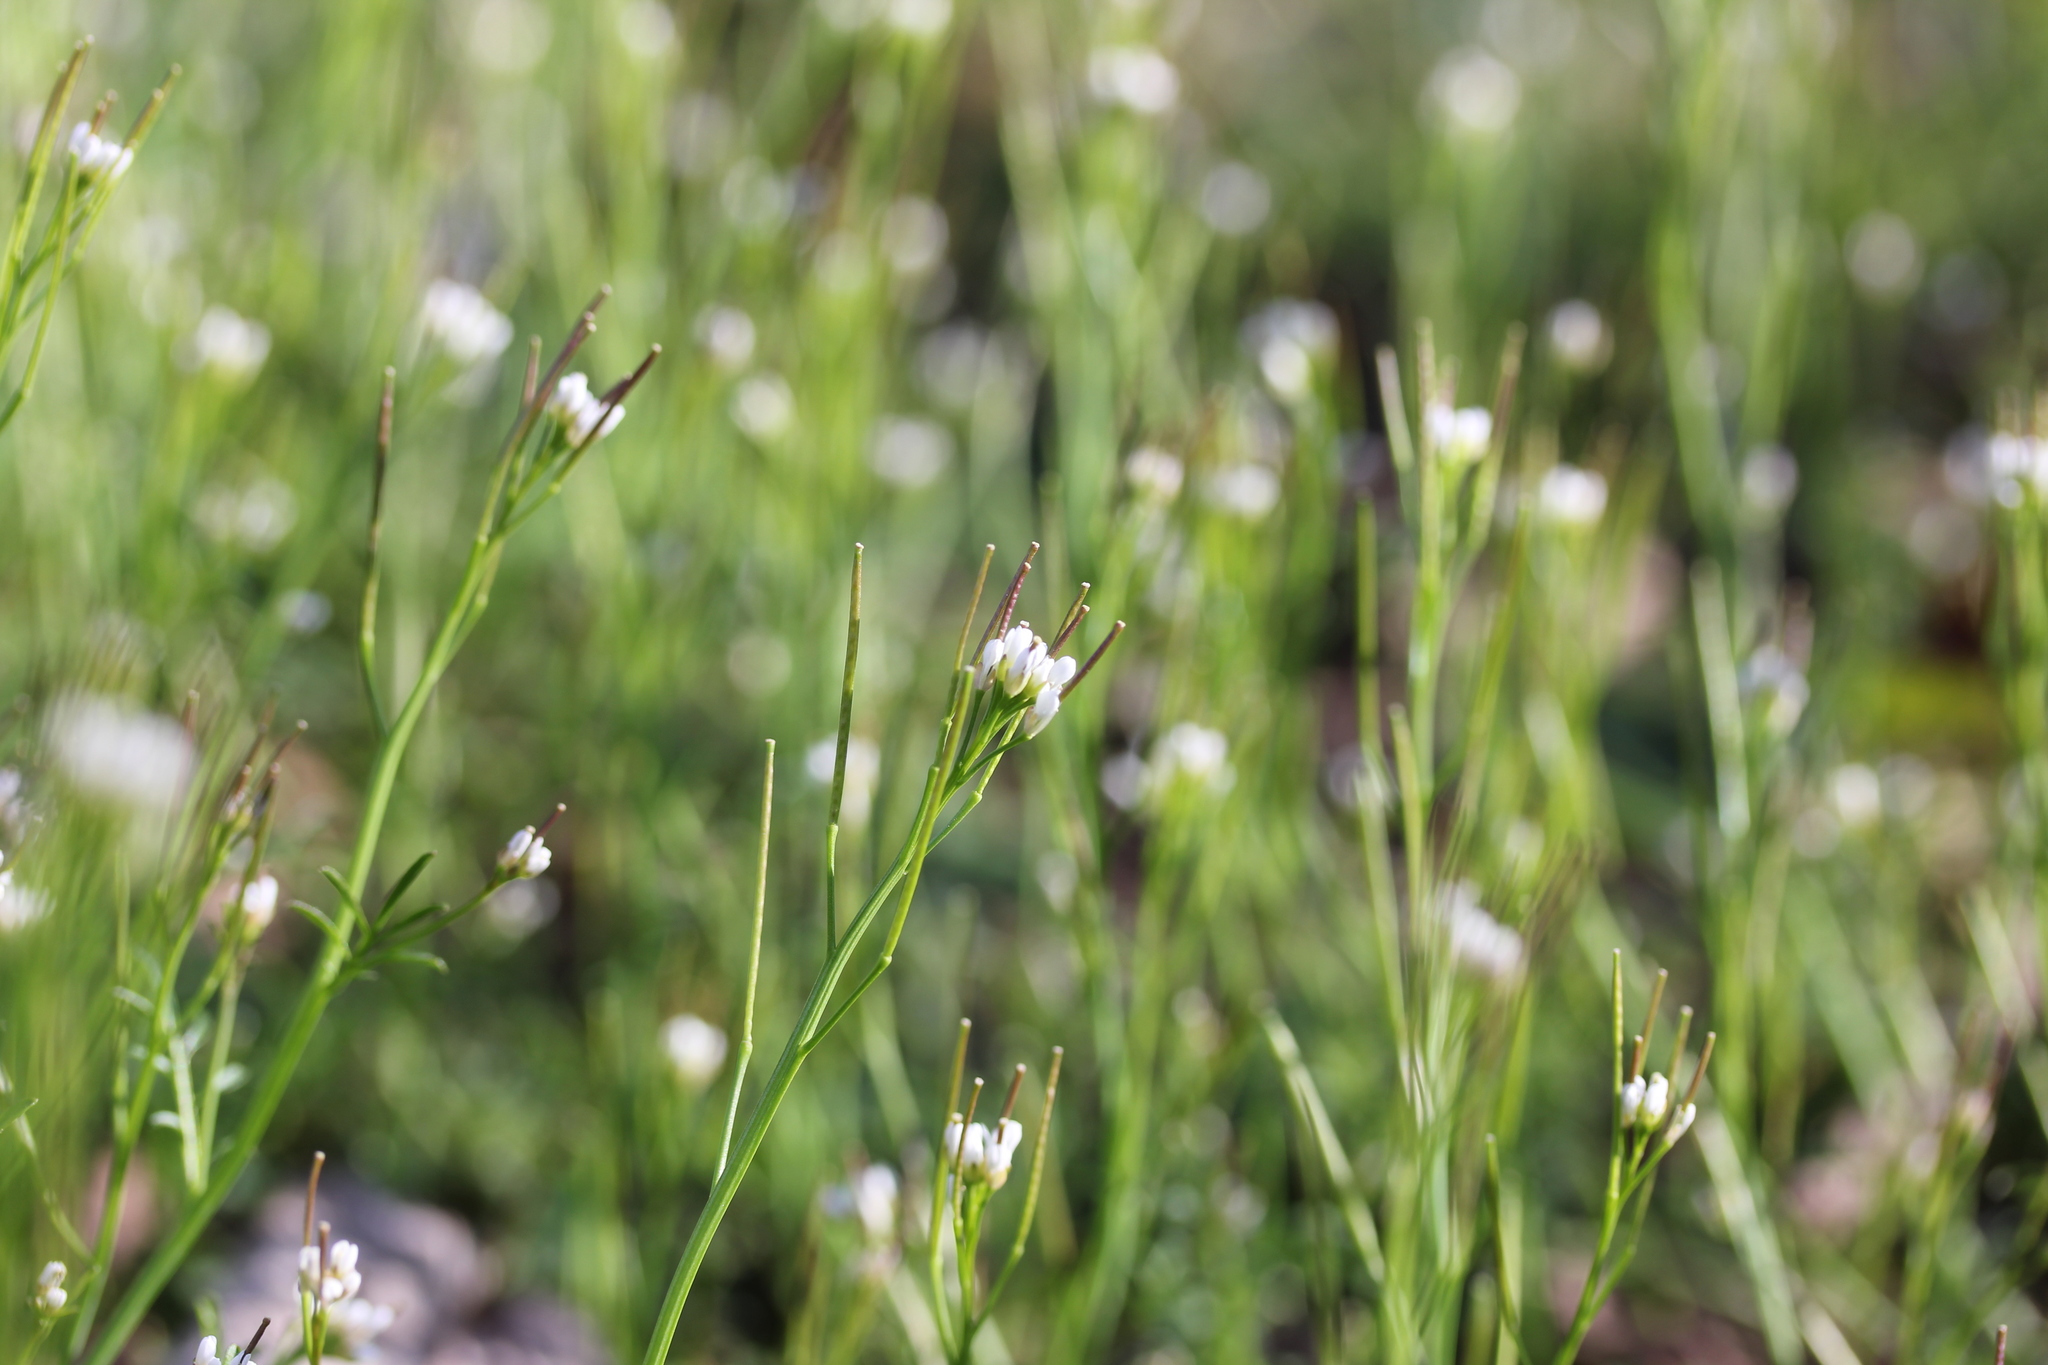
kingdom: Plantae
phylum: Tracheophyta
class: Magnoliopsida
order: Brassicales
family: Brassicaceae
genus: Cardamine
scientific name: Cardamine hirsuta
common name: Hairy bittercress
